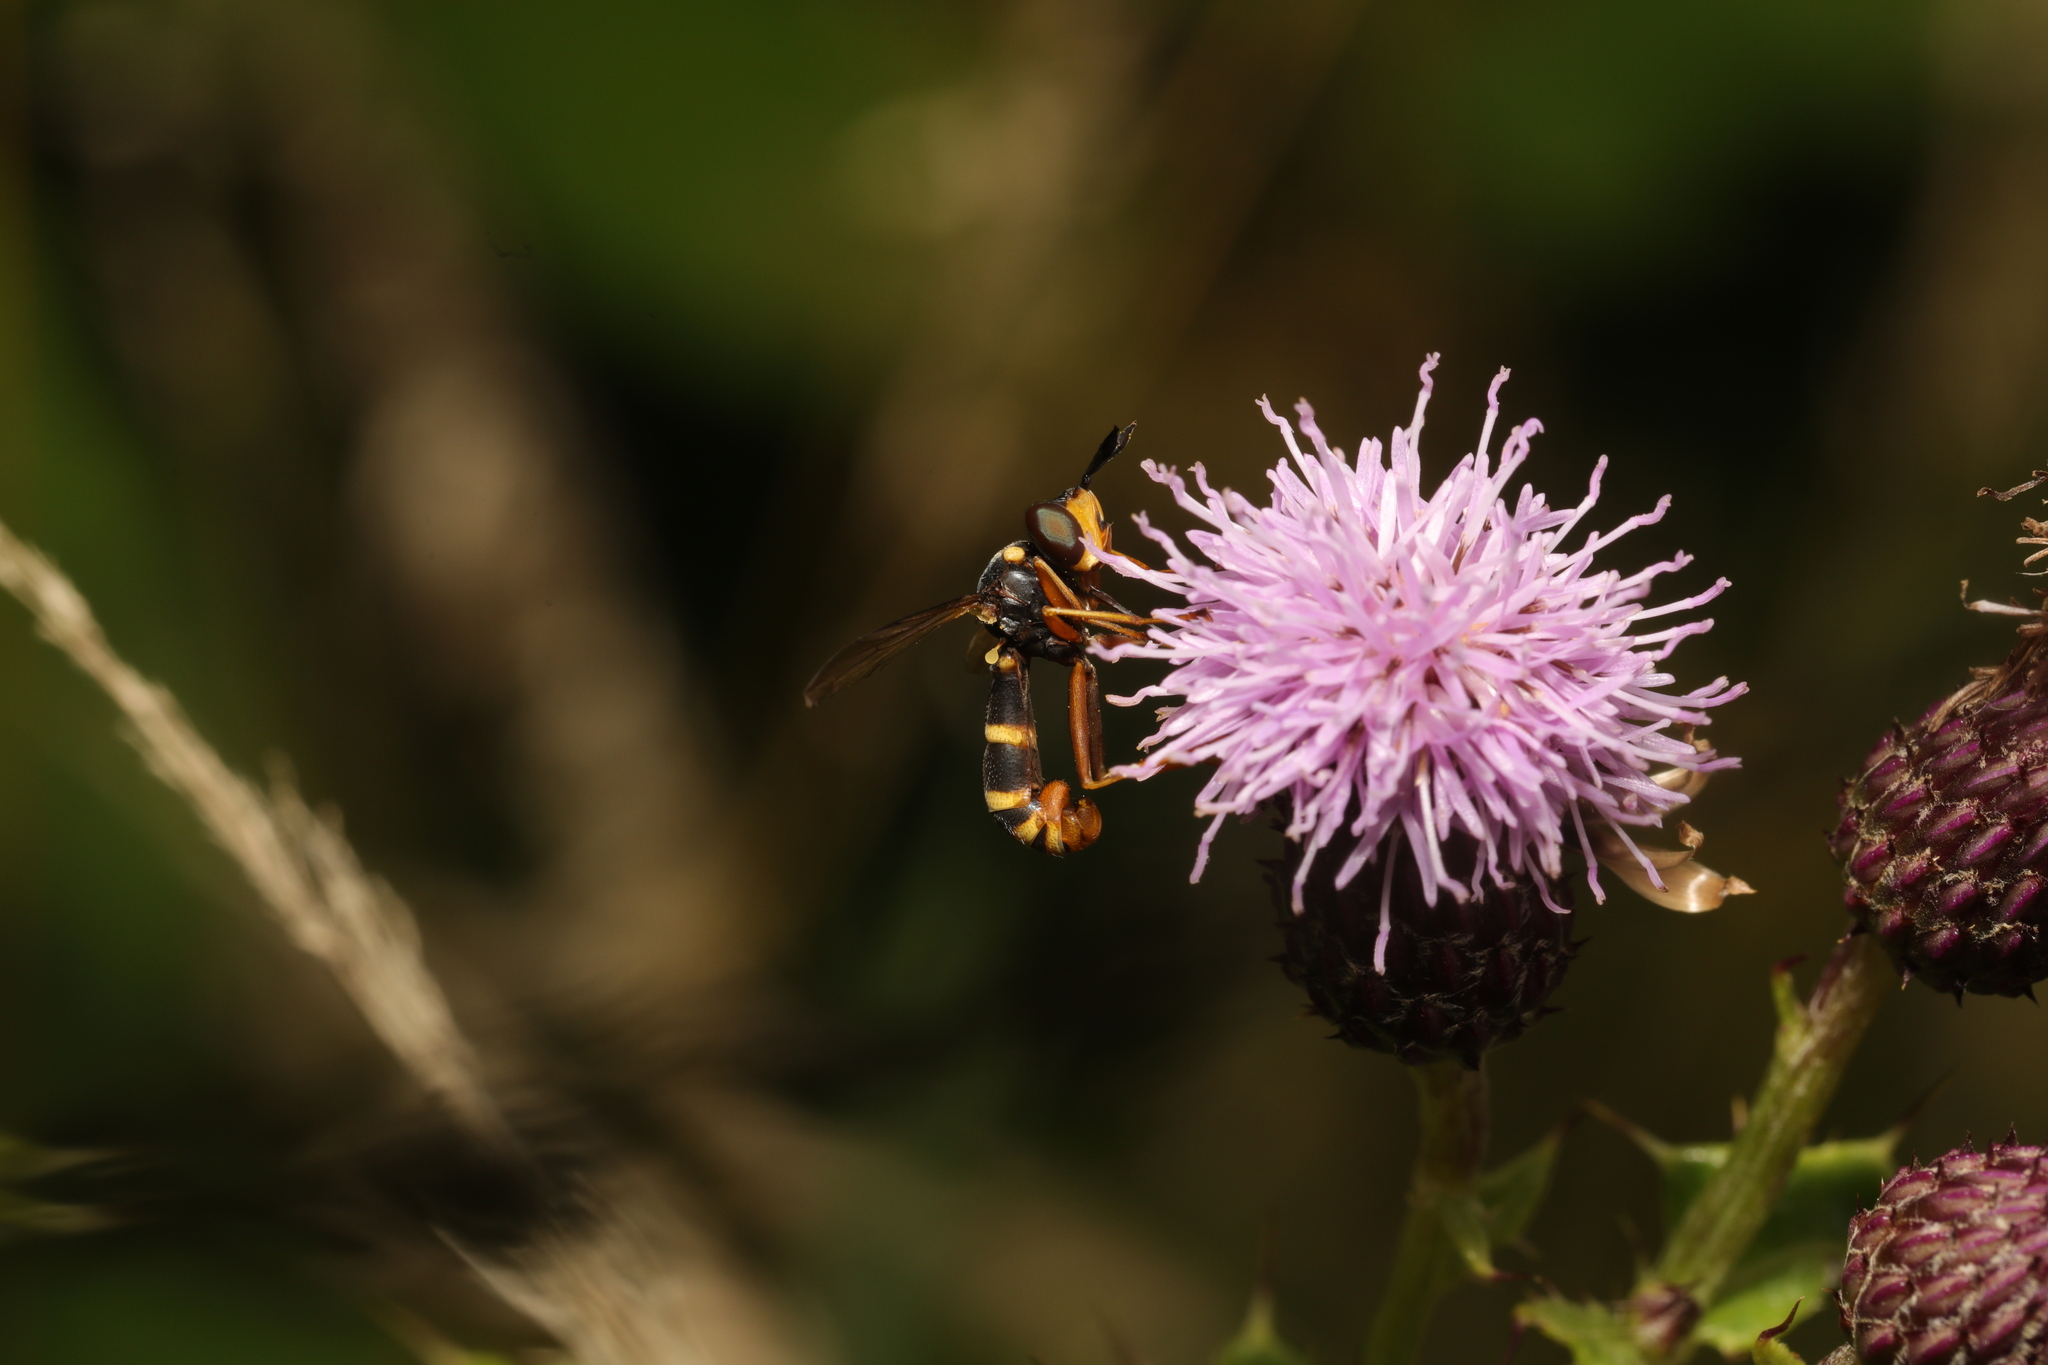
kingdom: Animalia
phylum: Arthropoda
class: Insecta
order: Diptera
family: Conopidae
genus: Conops
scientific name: Conops quadrifasciatus
